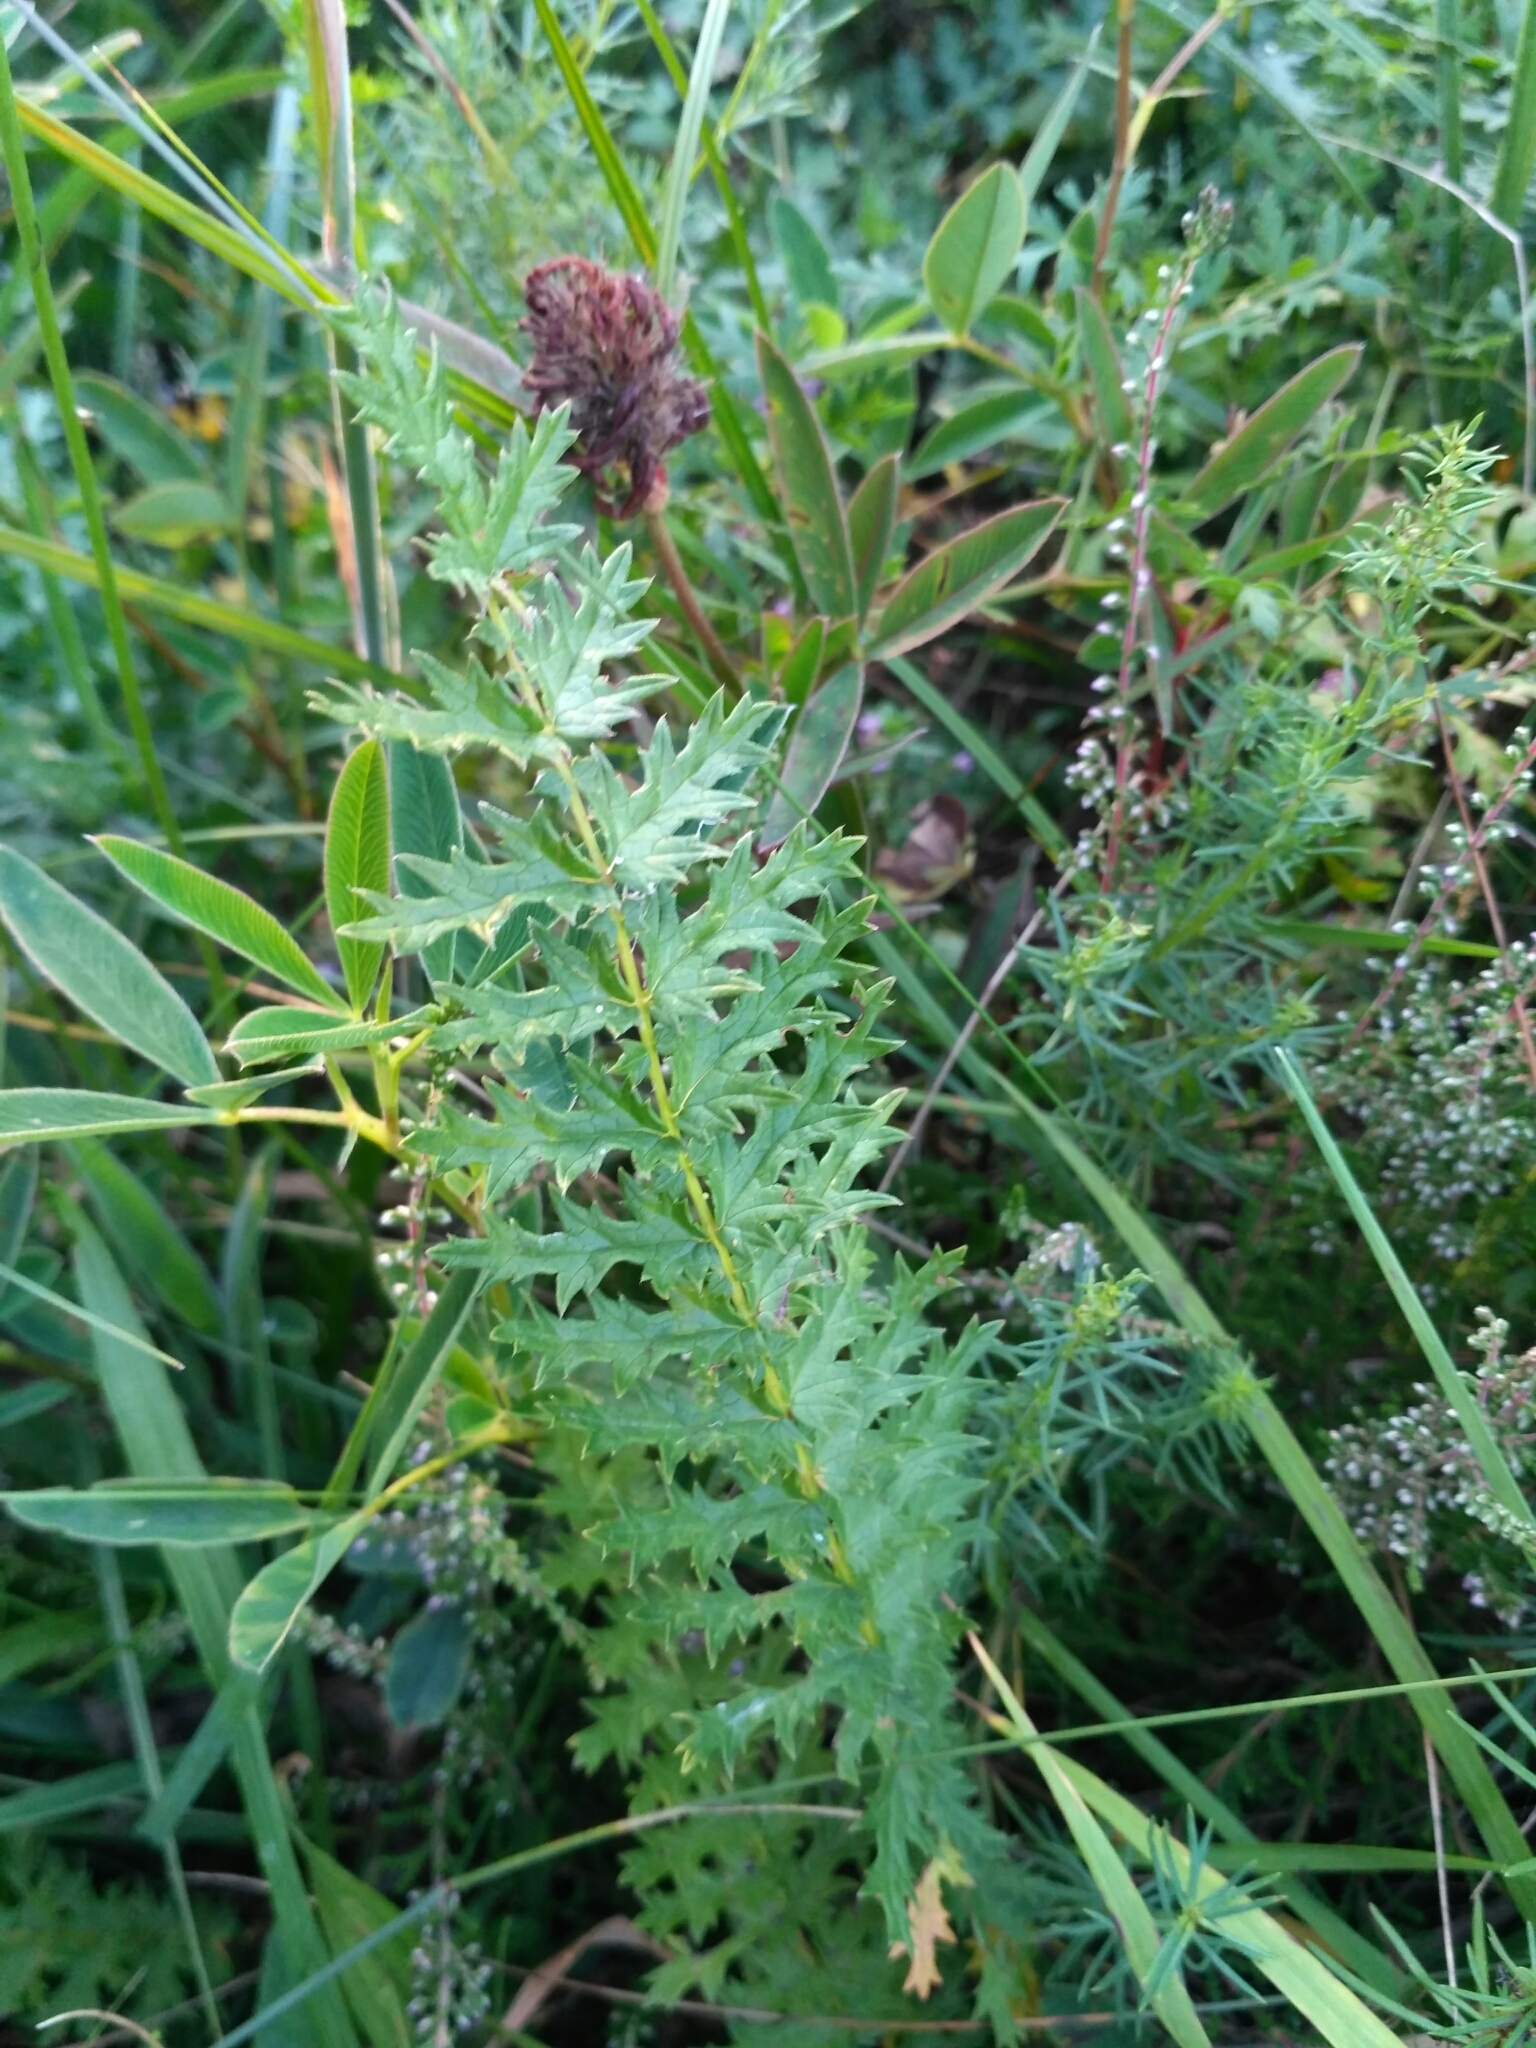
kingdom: Plantae
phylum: Tracheophyta
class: Magnoliopsida
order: Rosales
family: Rosaceae
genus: Filipendula
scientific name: Filipendula vulgaris
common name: Dropwort
